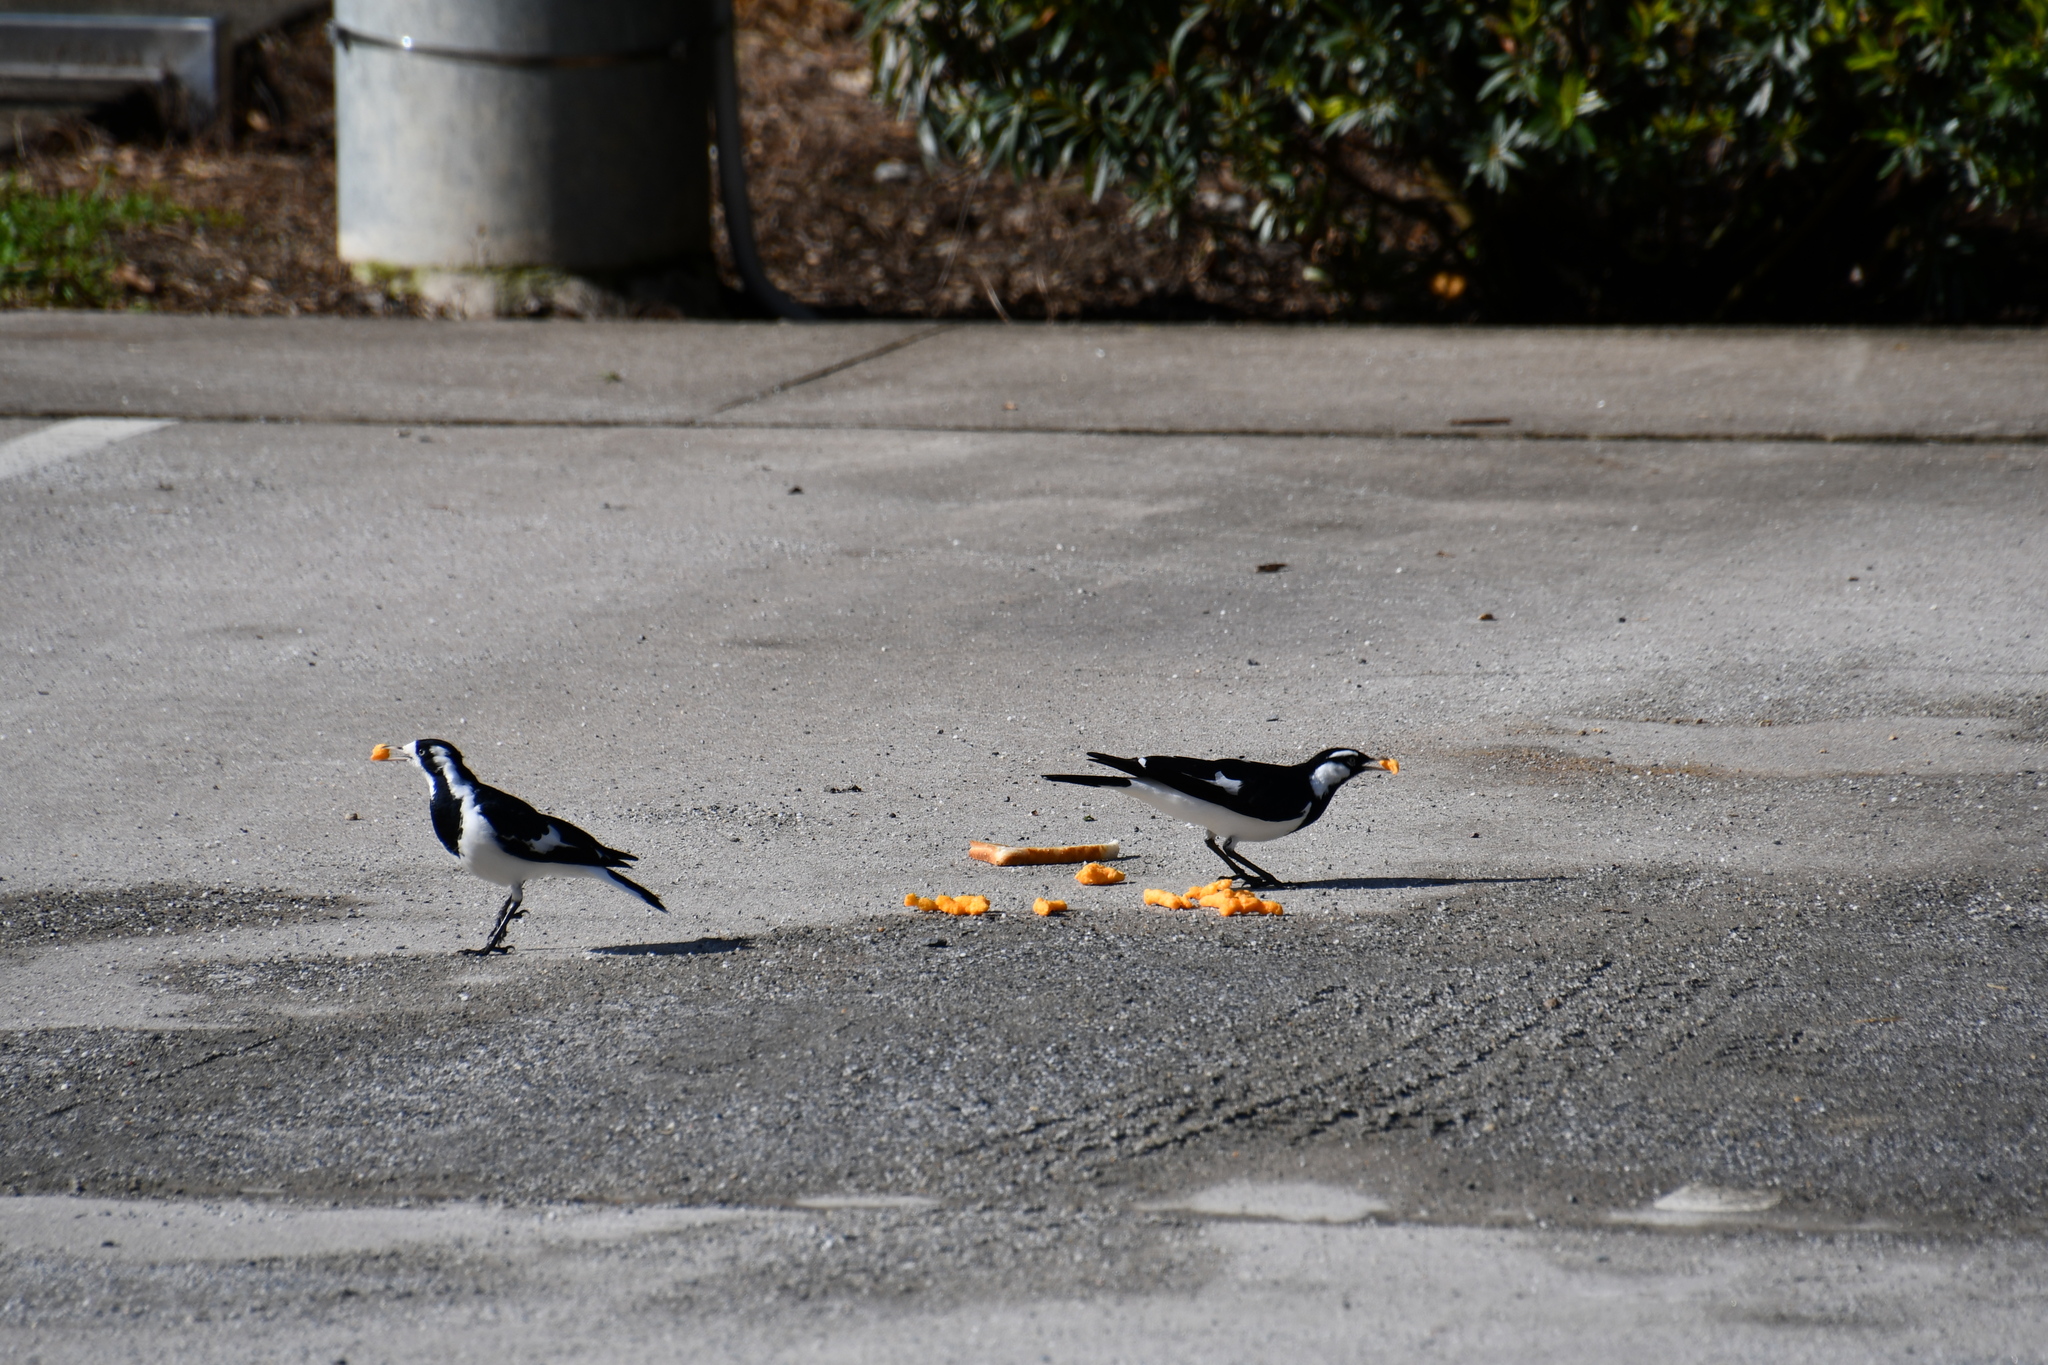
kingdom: Animalia
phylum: Chordata
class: Aves
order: Passeriformes
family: Monarchidae
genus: Grallina
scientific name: Grallina cyanoleuca
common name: Magpie-lark
